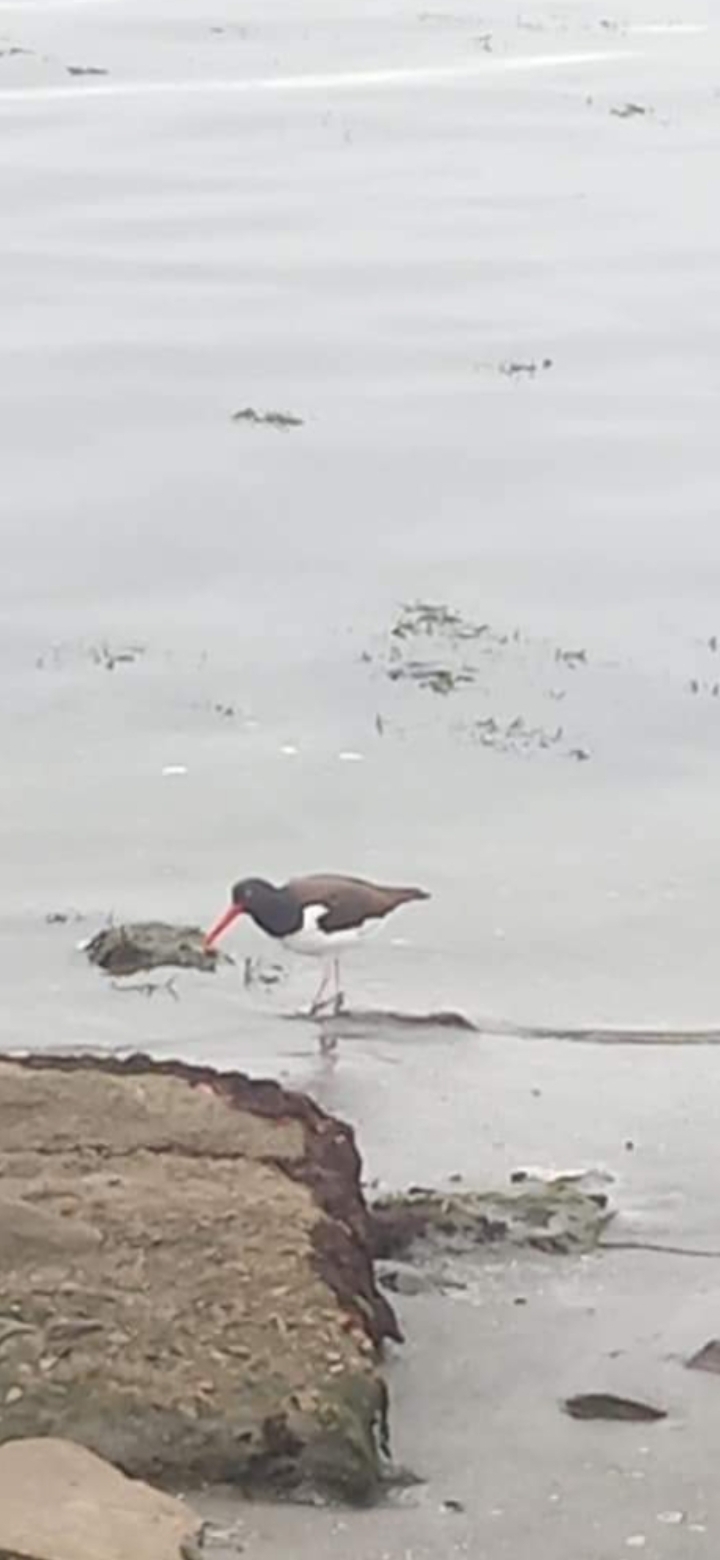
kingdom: Animalia
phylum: Chordata
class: Aves
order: Charadriiformes
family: Haematopodidae
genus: Haematopus
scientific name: Haematopus palliatus
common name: American oystercatcher
